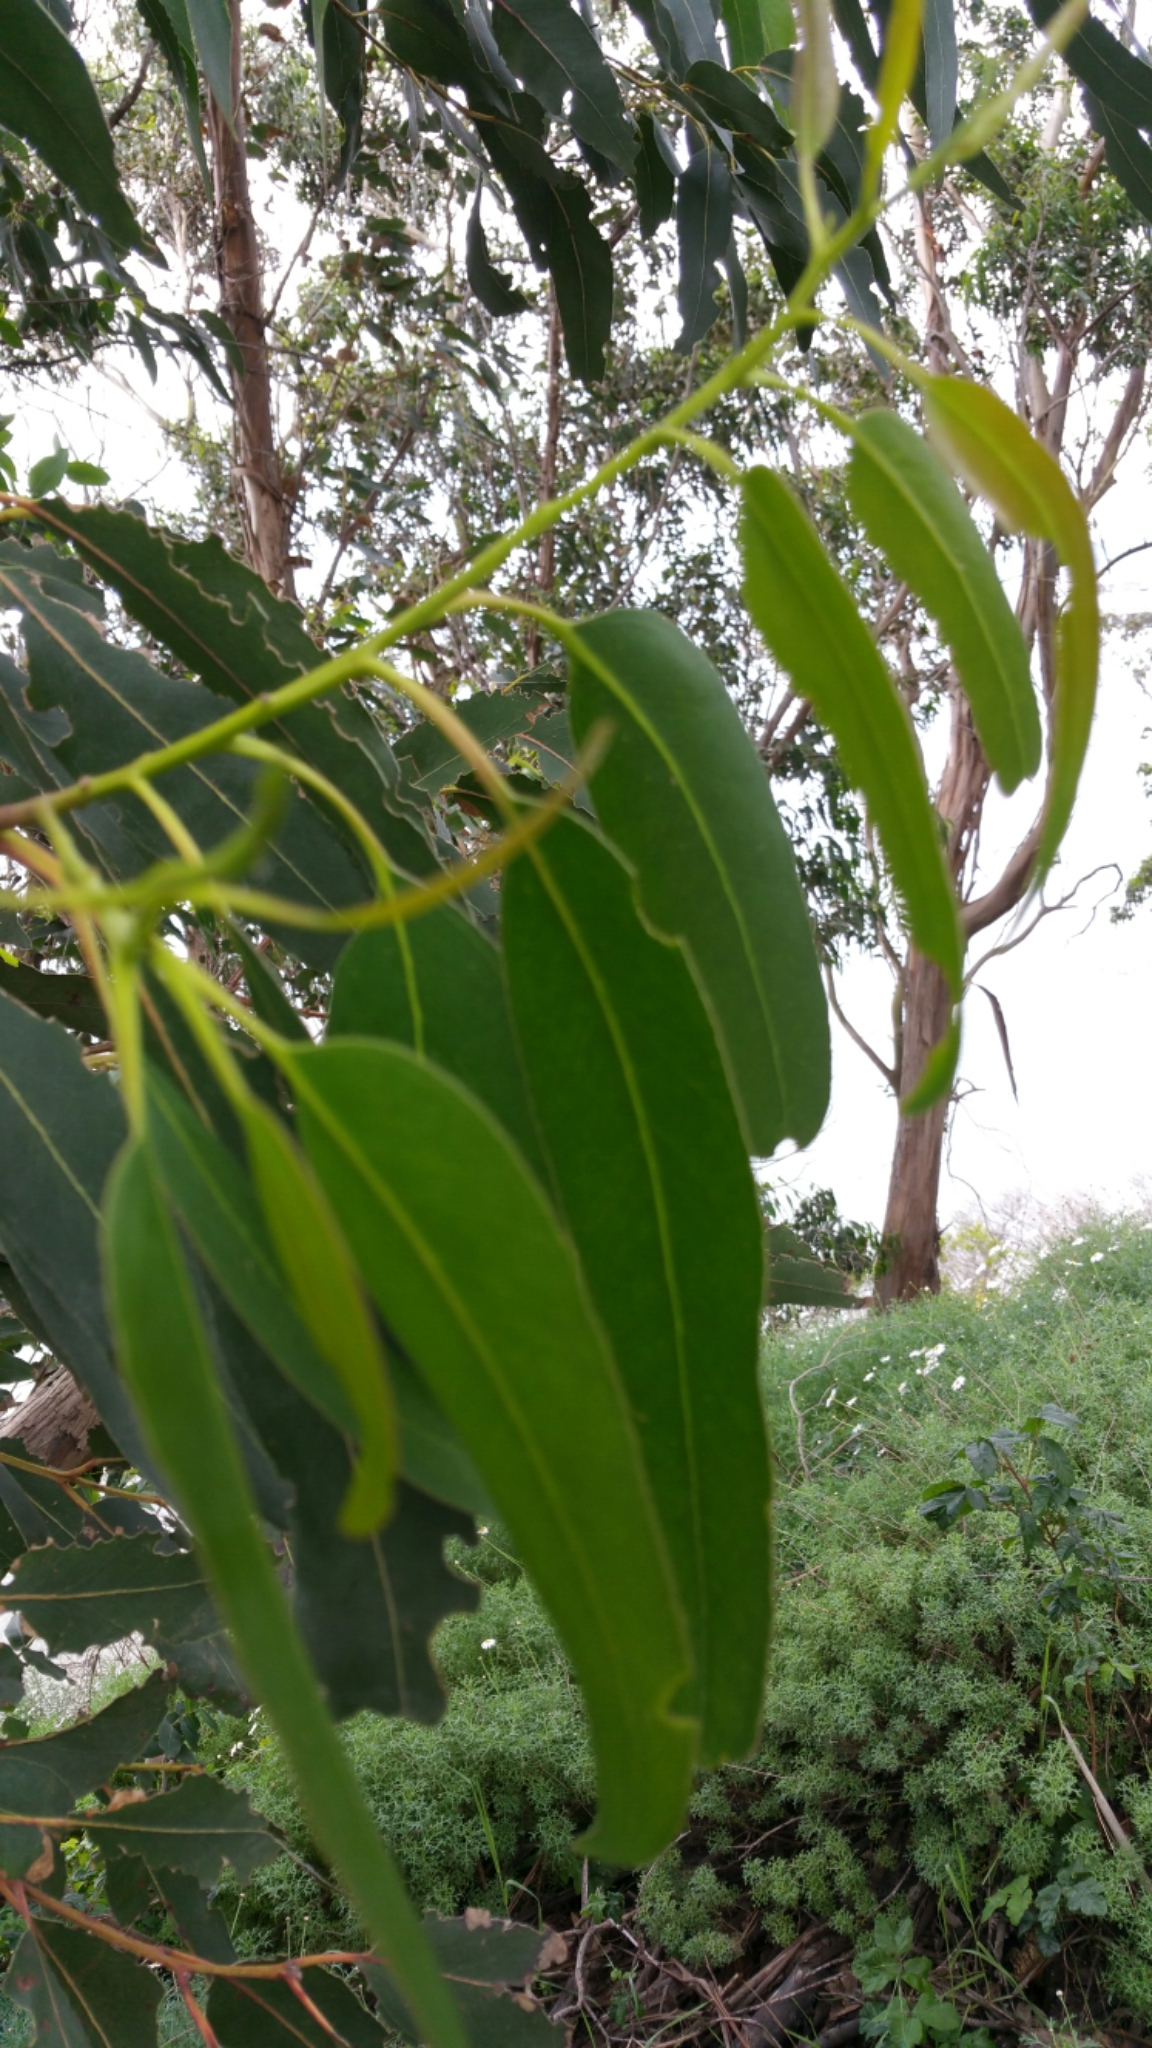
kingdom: Plantae
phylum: Tracheophyta
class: Magnoliopsida
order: Myrtales
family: Myrtaceae
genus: Eucalyptus
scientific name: Eucalyptus globulus
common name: Southern blue-gum
